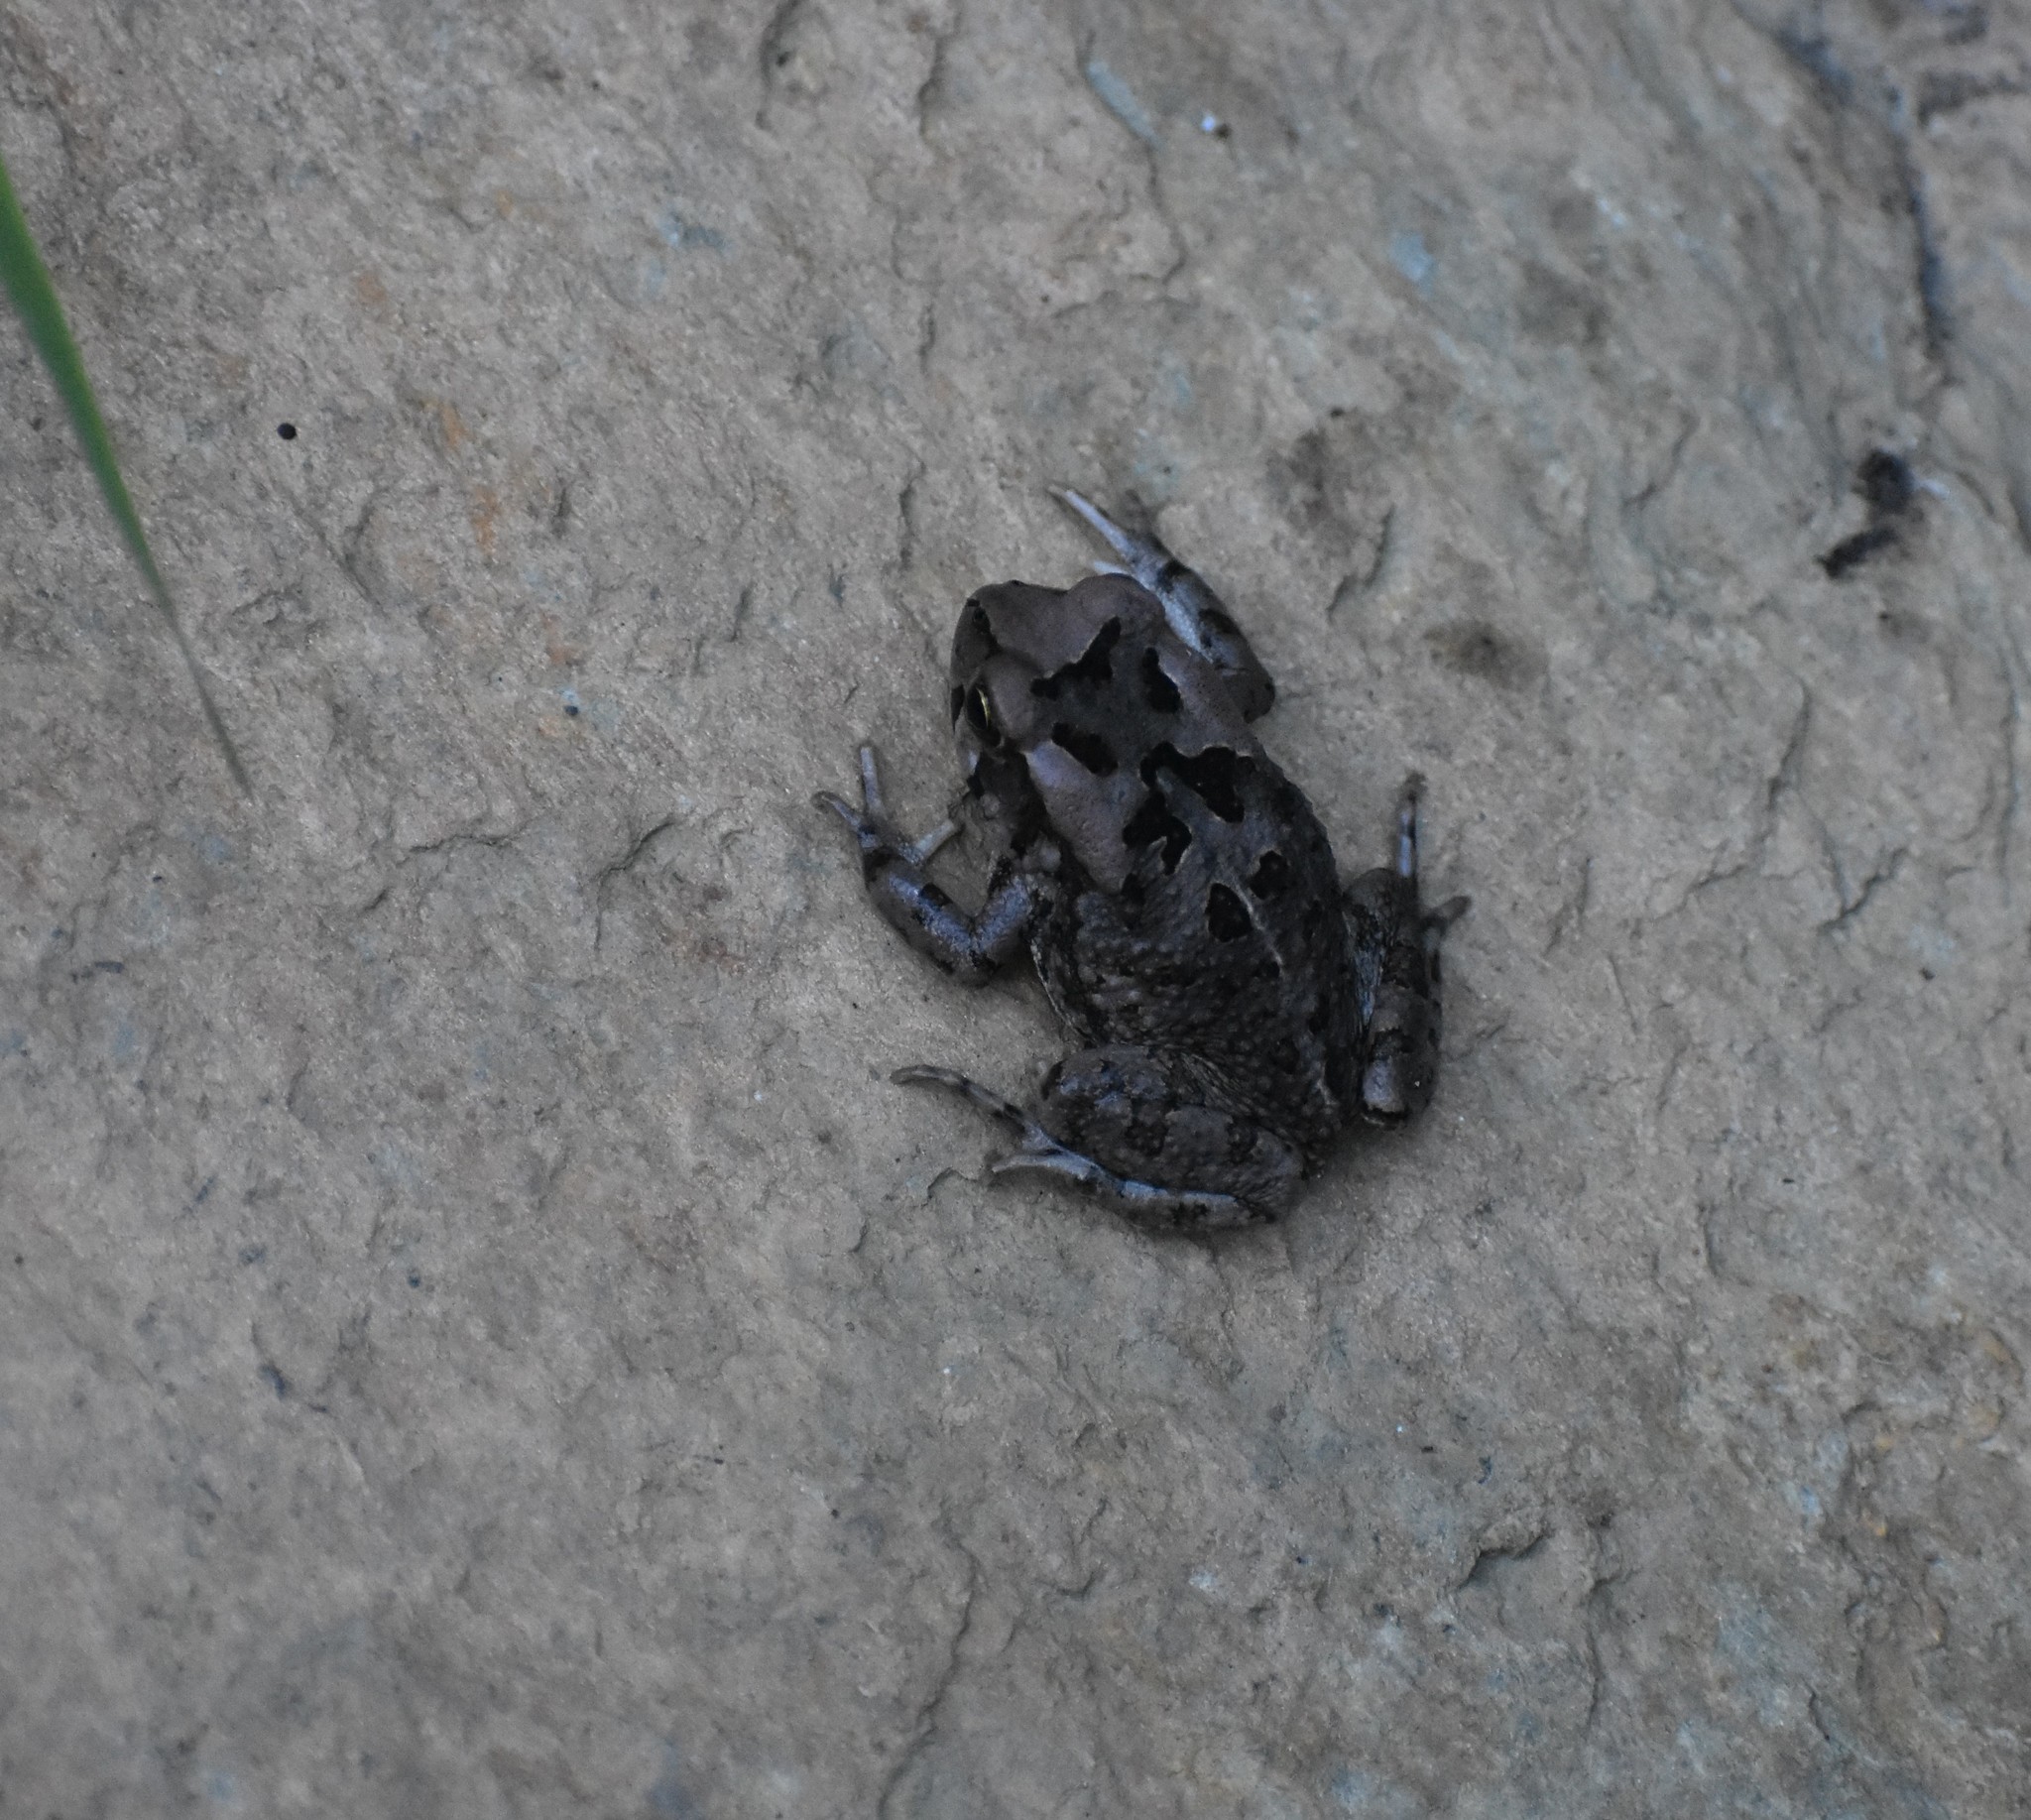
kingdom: Animalia
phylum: Chordata
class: Amphibia
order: Anura
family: Bufonidae
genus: Sclerophrys
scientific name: Sclerophrys capensis
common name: Ranger’s toad
